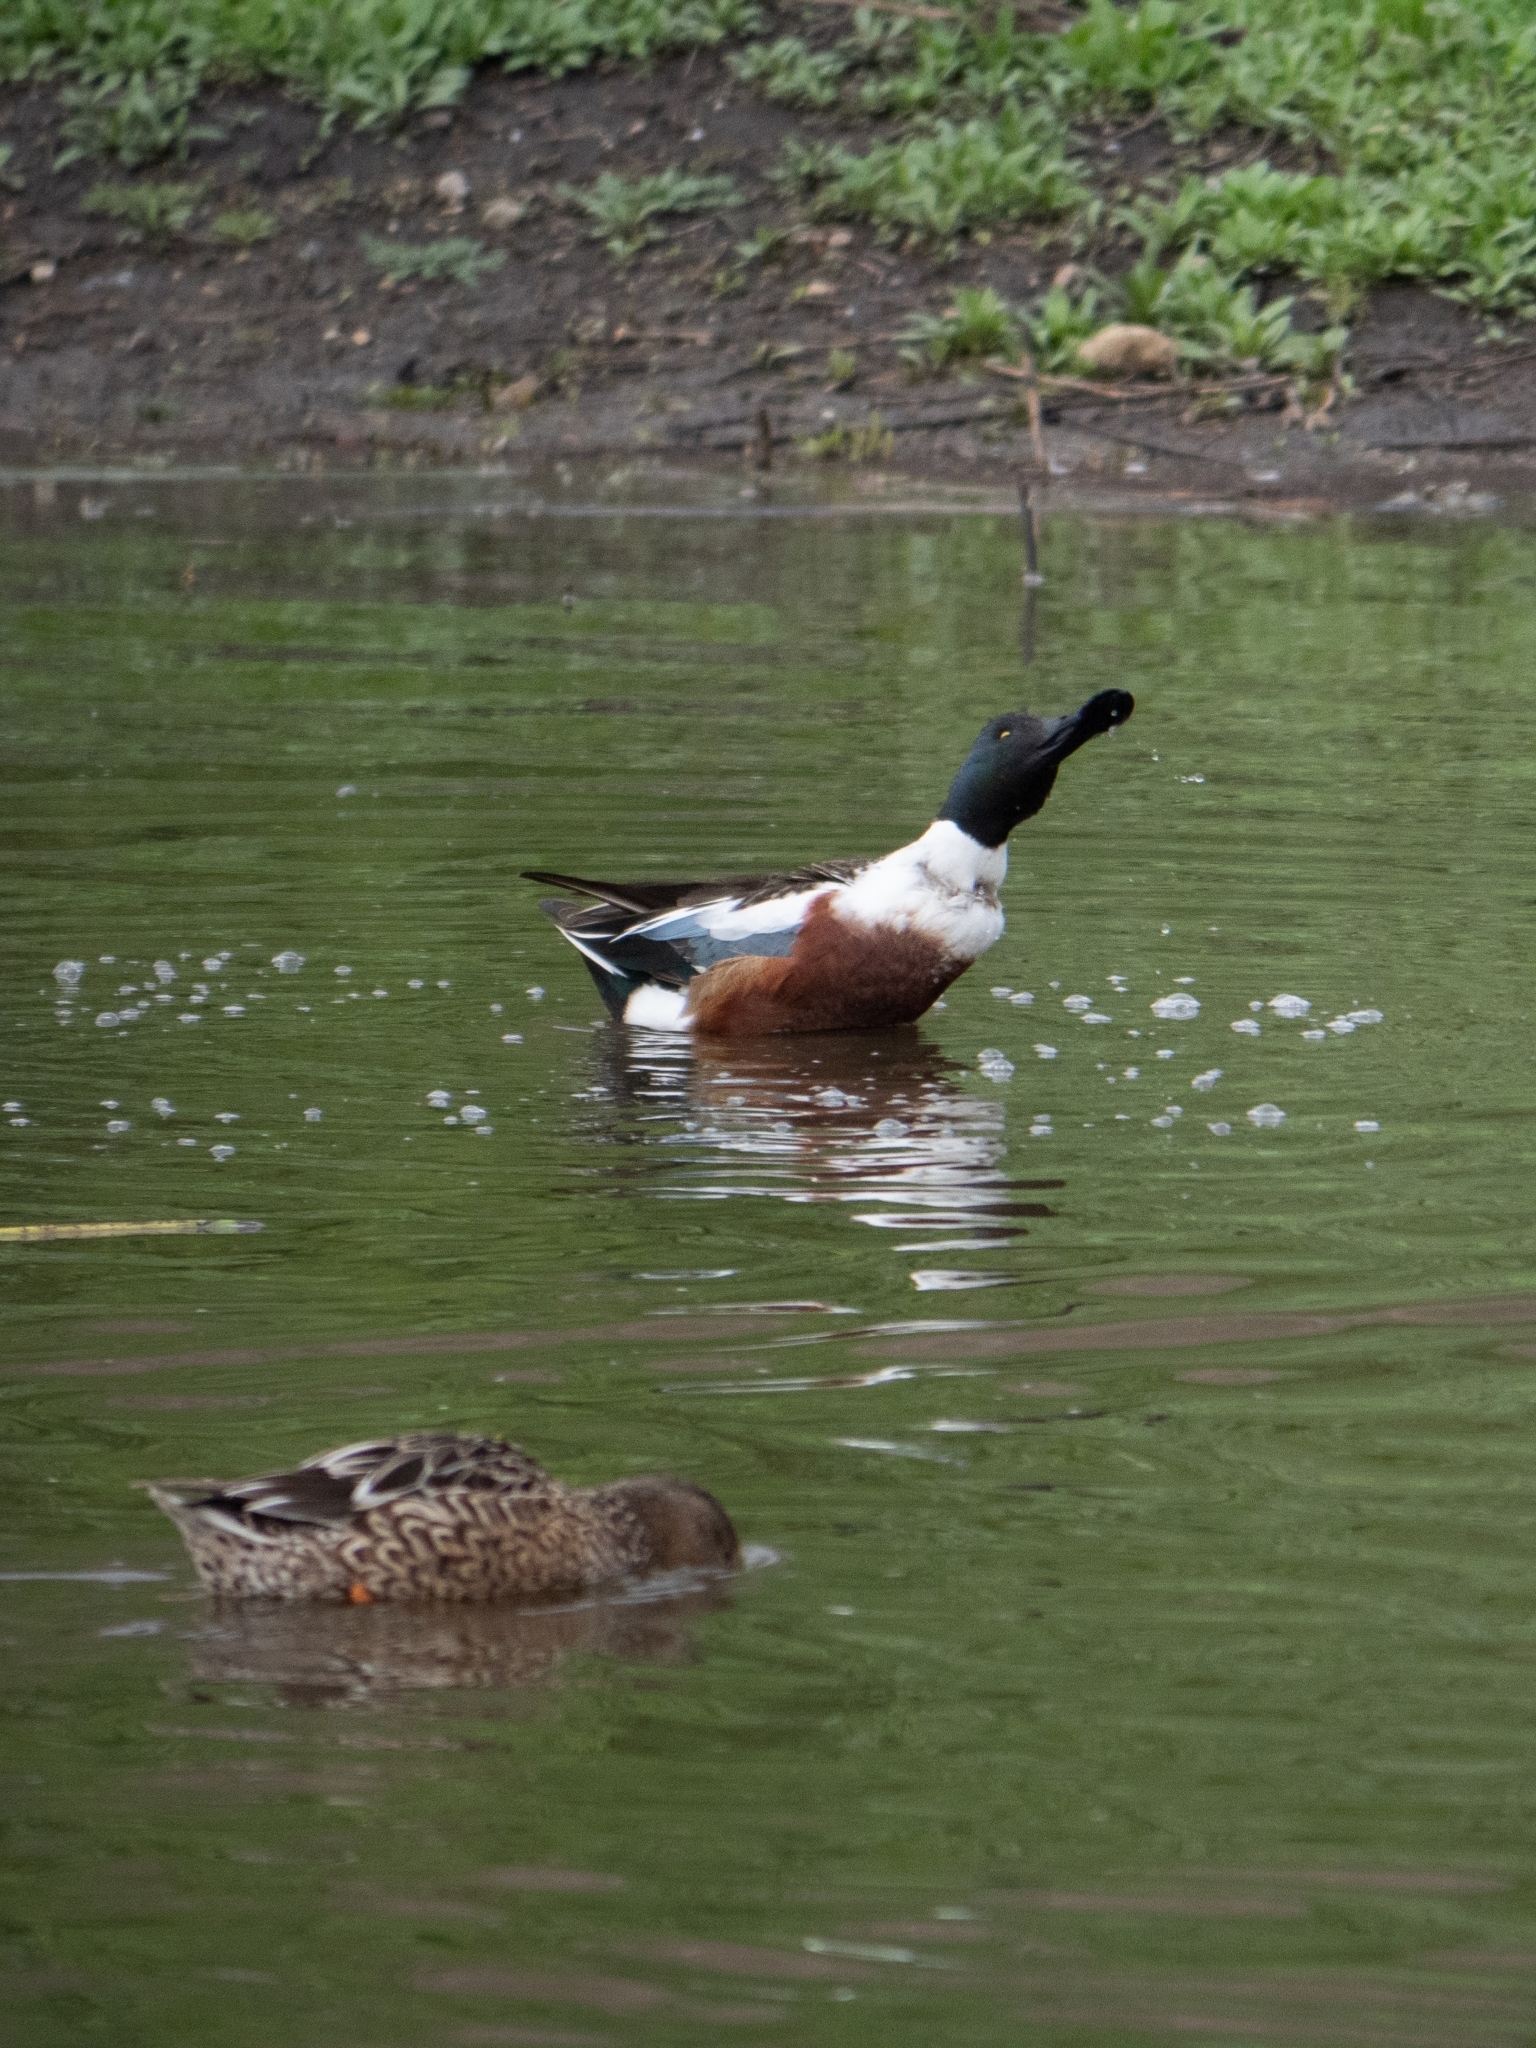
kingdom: Animalia
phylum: Chordata
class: Aves
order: Anseriformes
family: Anatidae
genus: Spatula
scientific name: Spatula clypeata
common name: Northern shoveler
